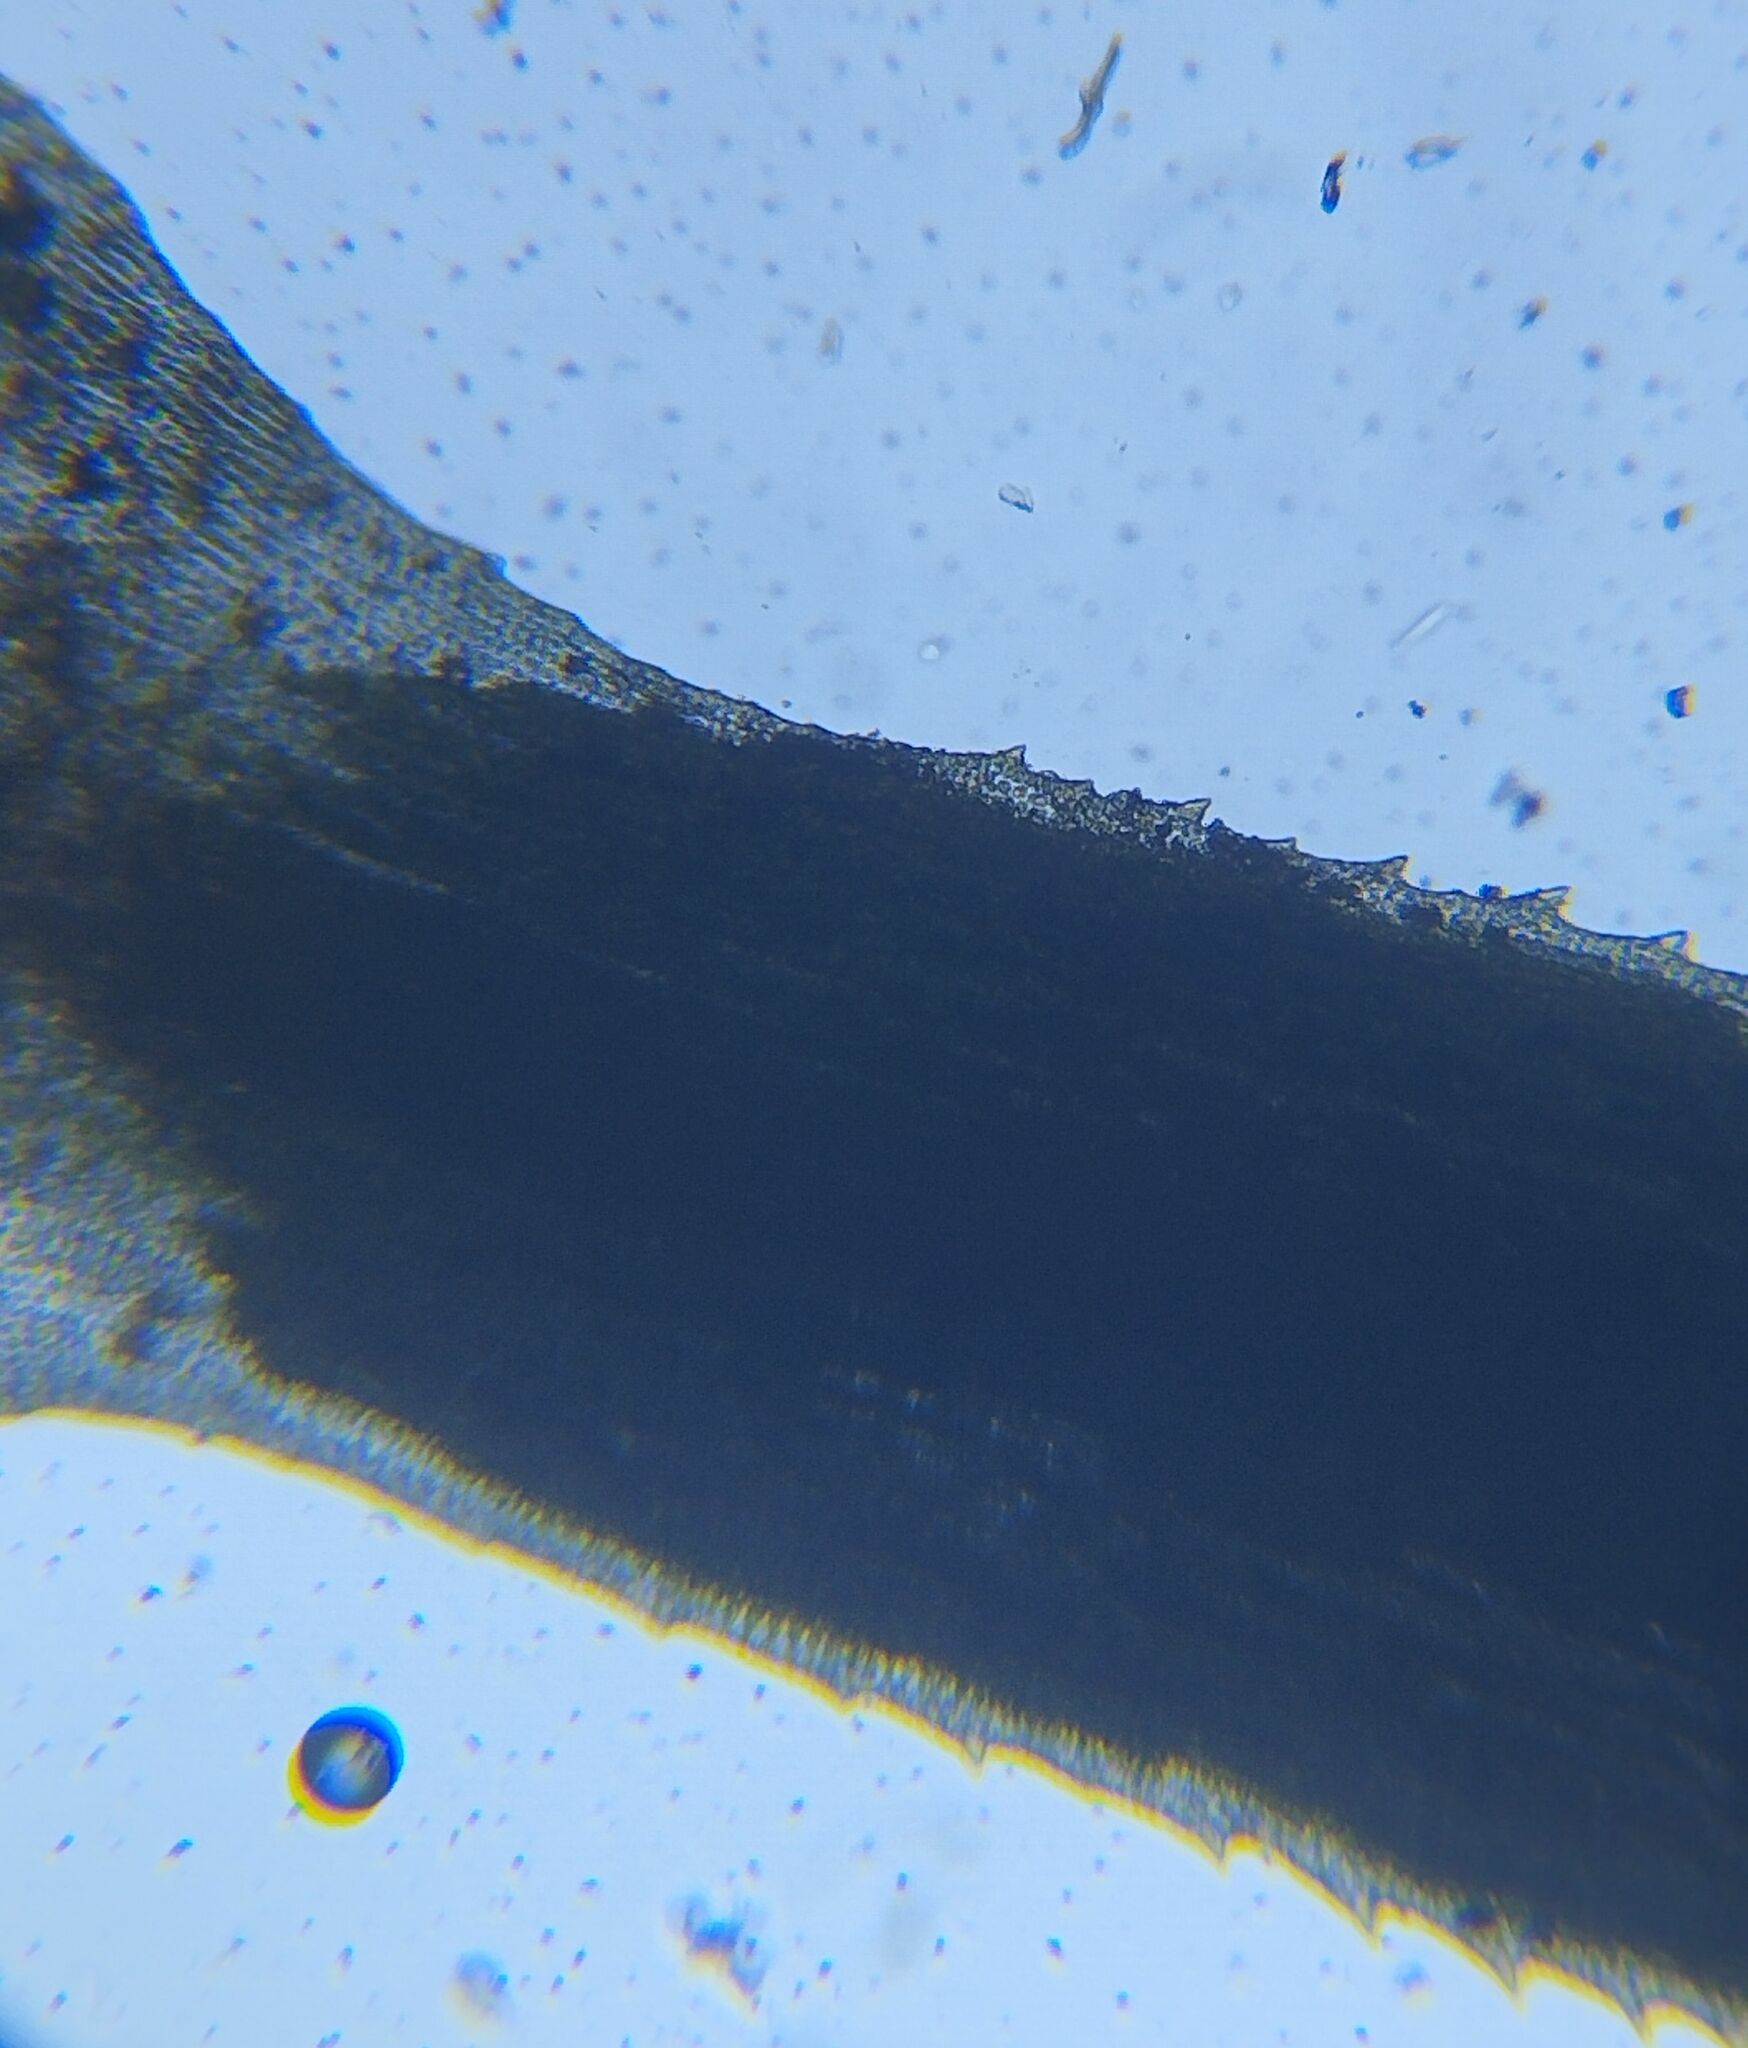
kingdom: Plantae
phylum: Bryophyta
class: Polytrichopsida
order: Polytrichales
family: Polytrichaceae
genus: Pogonatum
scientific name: Pogonatum aloides
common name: Aloe haircap
